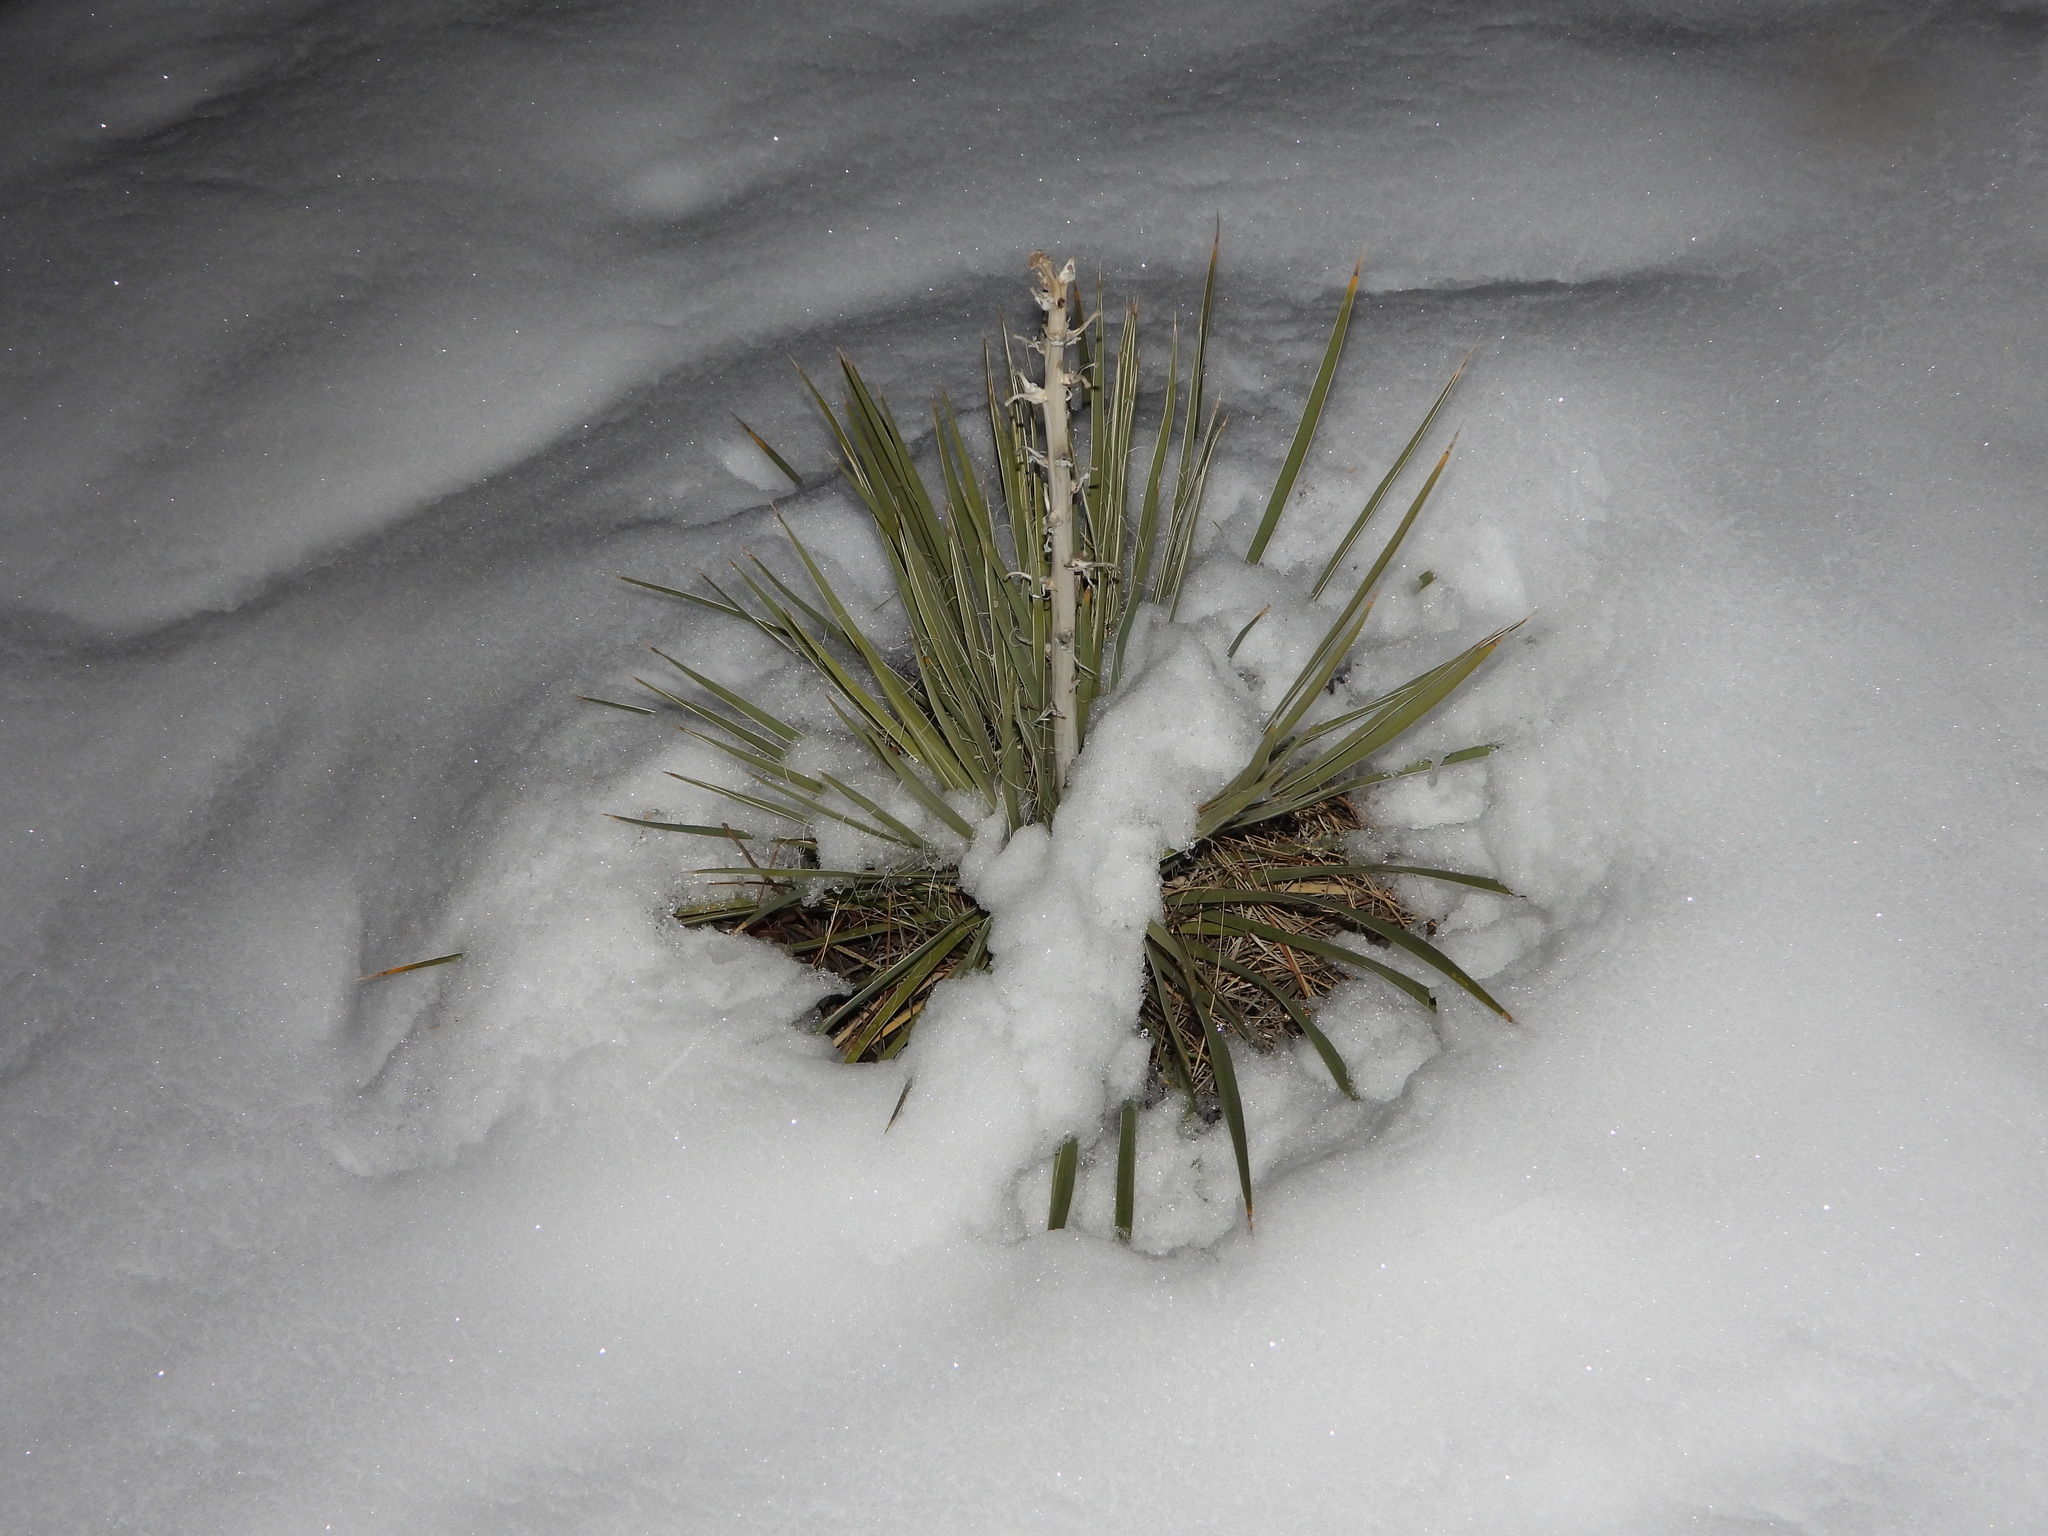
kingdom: Plantae
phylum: Tracheophyta
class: Liliopsida
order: Asparagales
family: Asparagaceae
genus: Yucca
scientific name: Yucca glauca
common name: Great plains yucca
